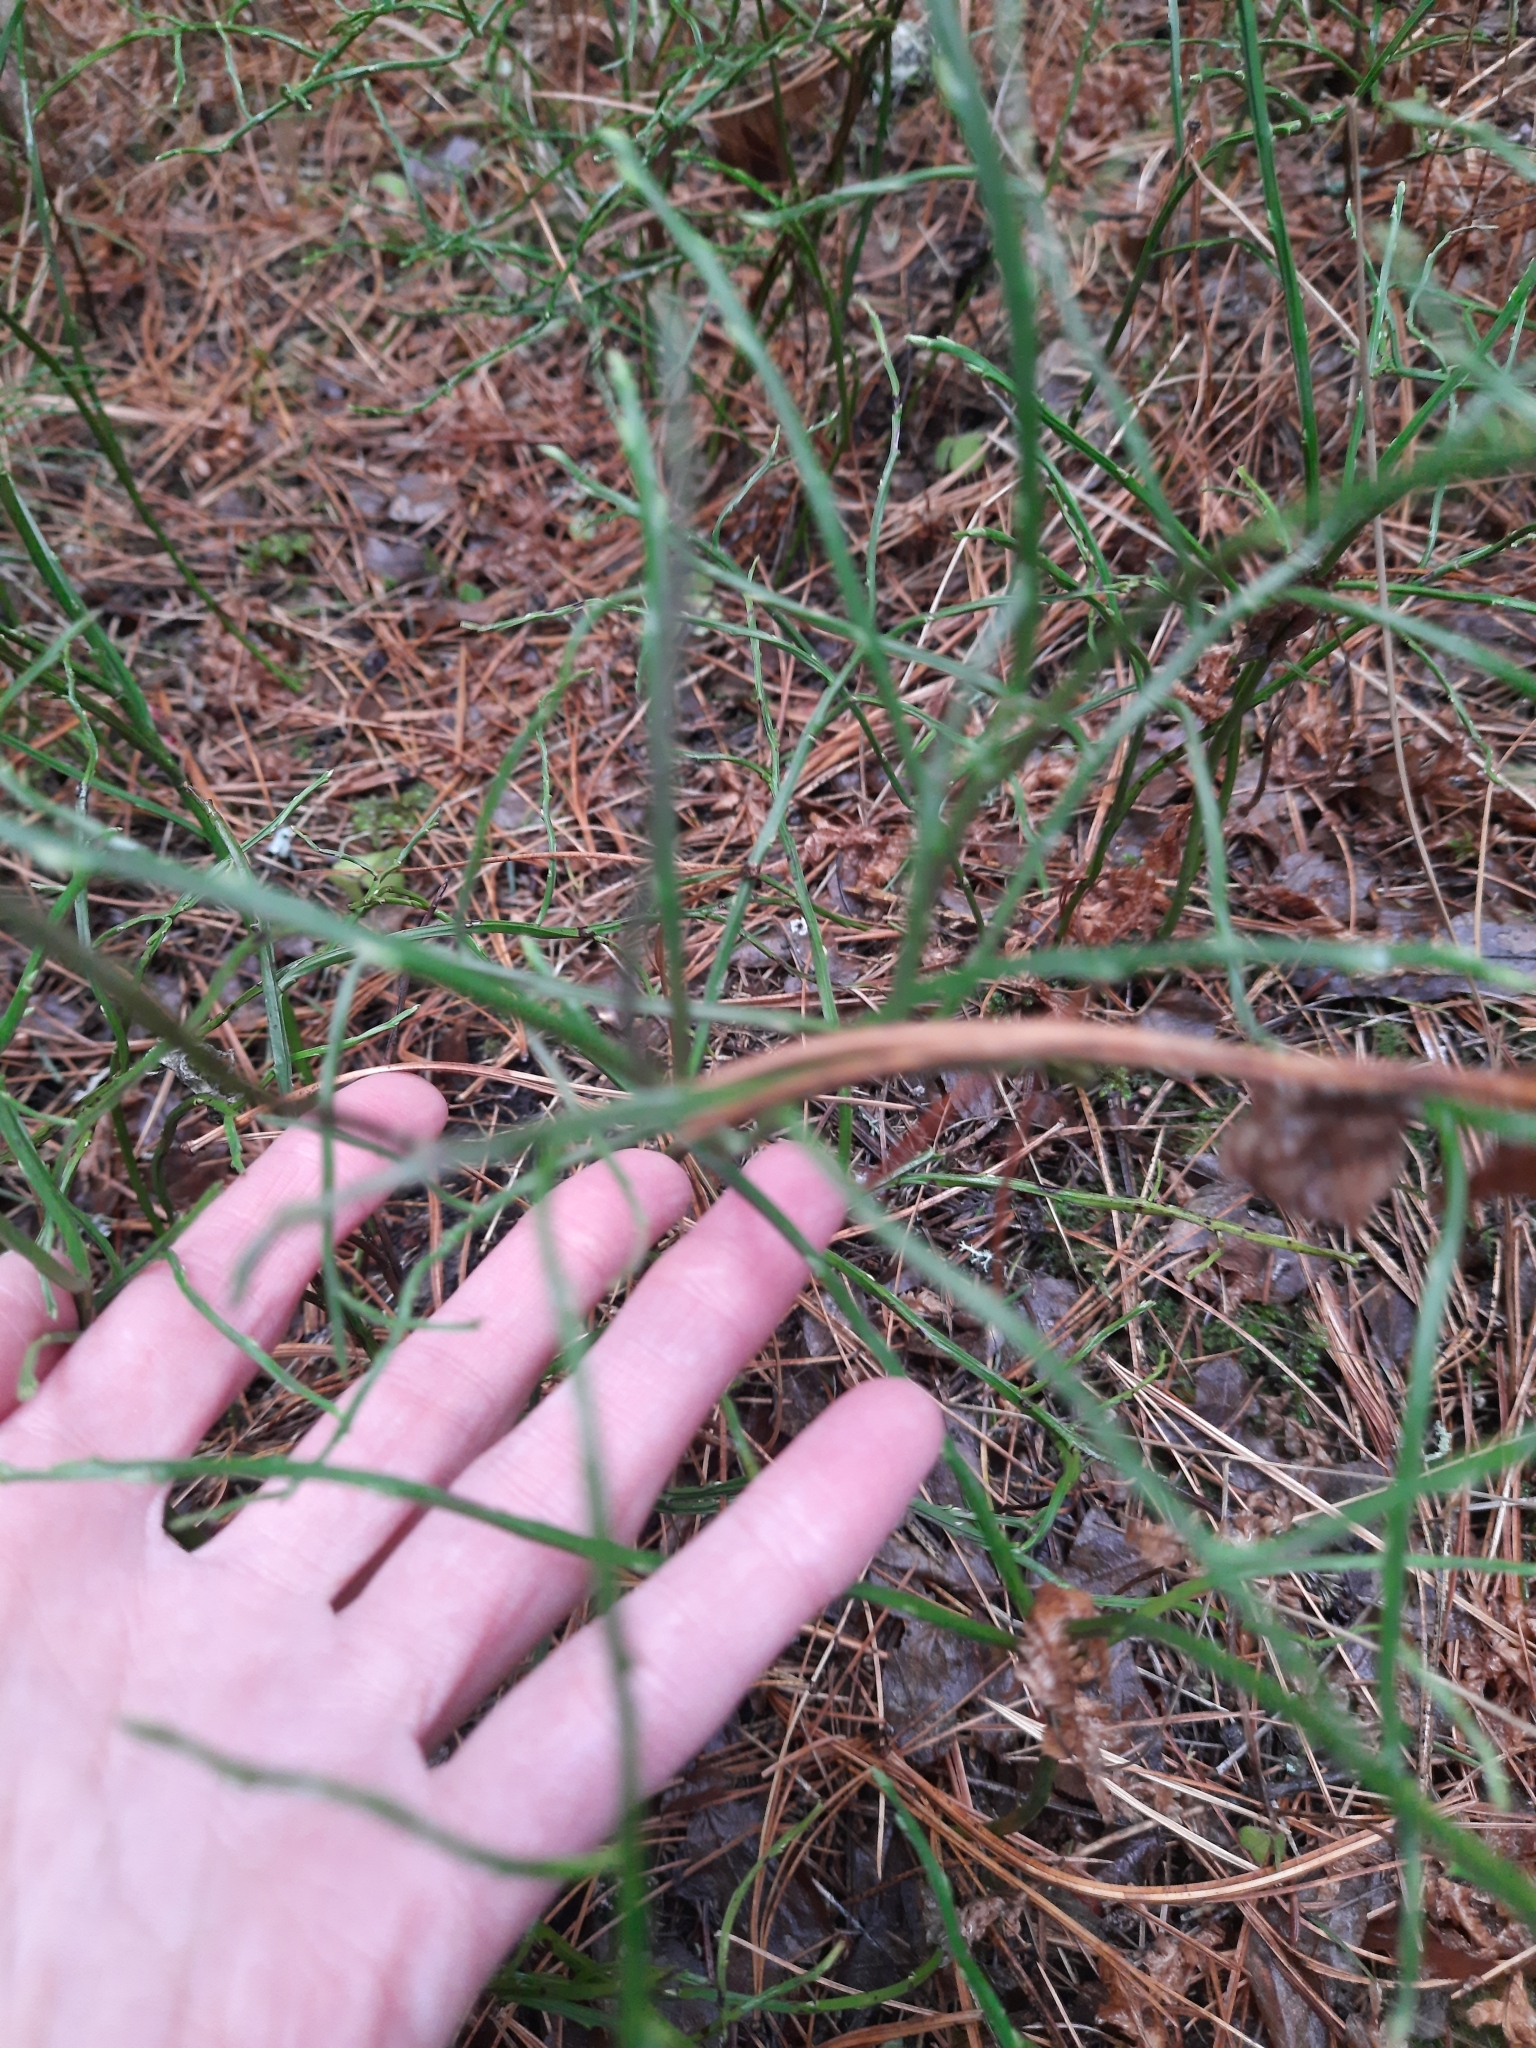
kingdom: Plantae
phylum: Tracheophyta
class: Magnoliopsida
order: Ericales
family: Ericaceae
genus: Vaccinium
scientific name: Vaccinium myrtillus
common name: Bilberry
